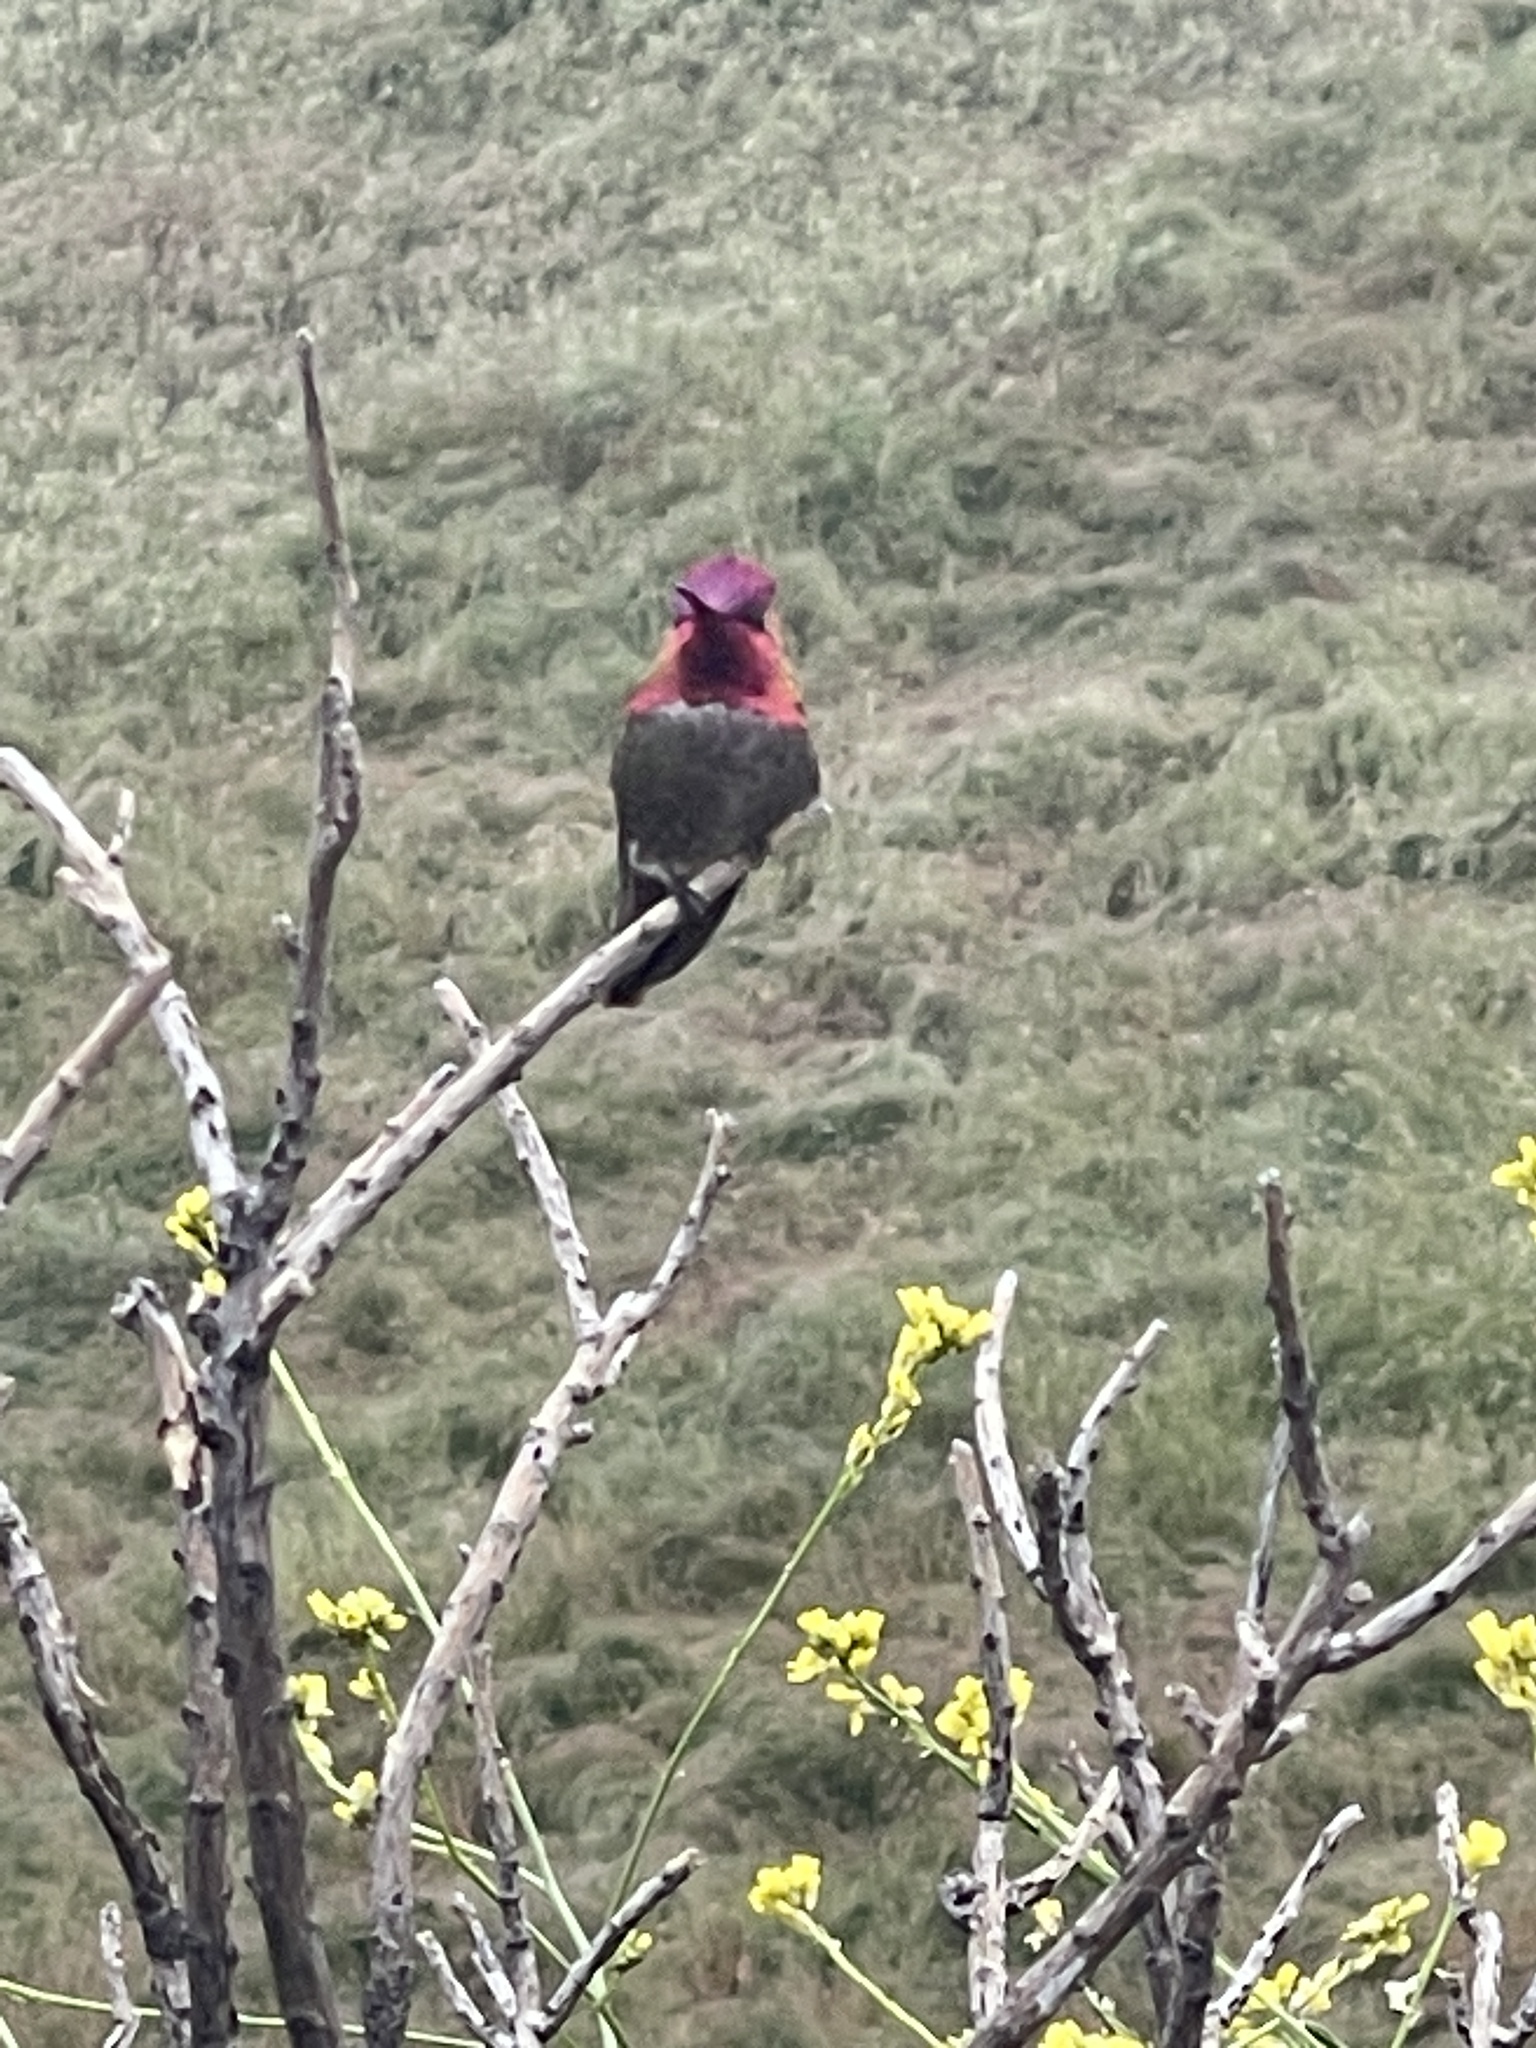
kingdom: Animalia
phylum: Chordata
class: Aves
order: Apodiformes
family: Trochilidae
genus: Calypte
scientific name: Calypte anna
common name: Anna's hummingbird
